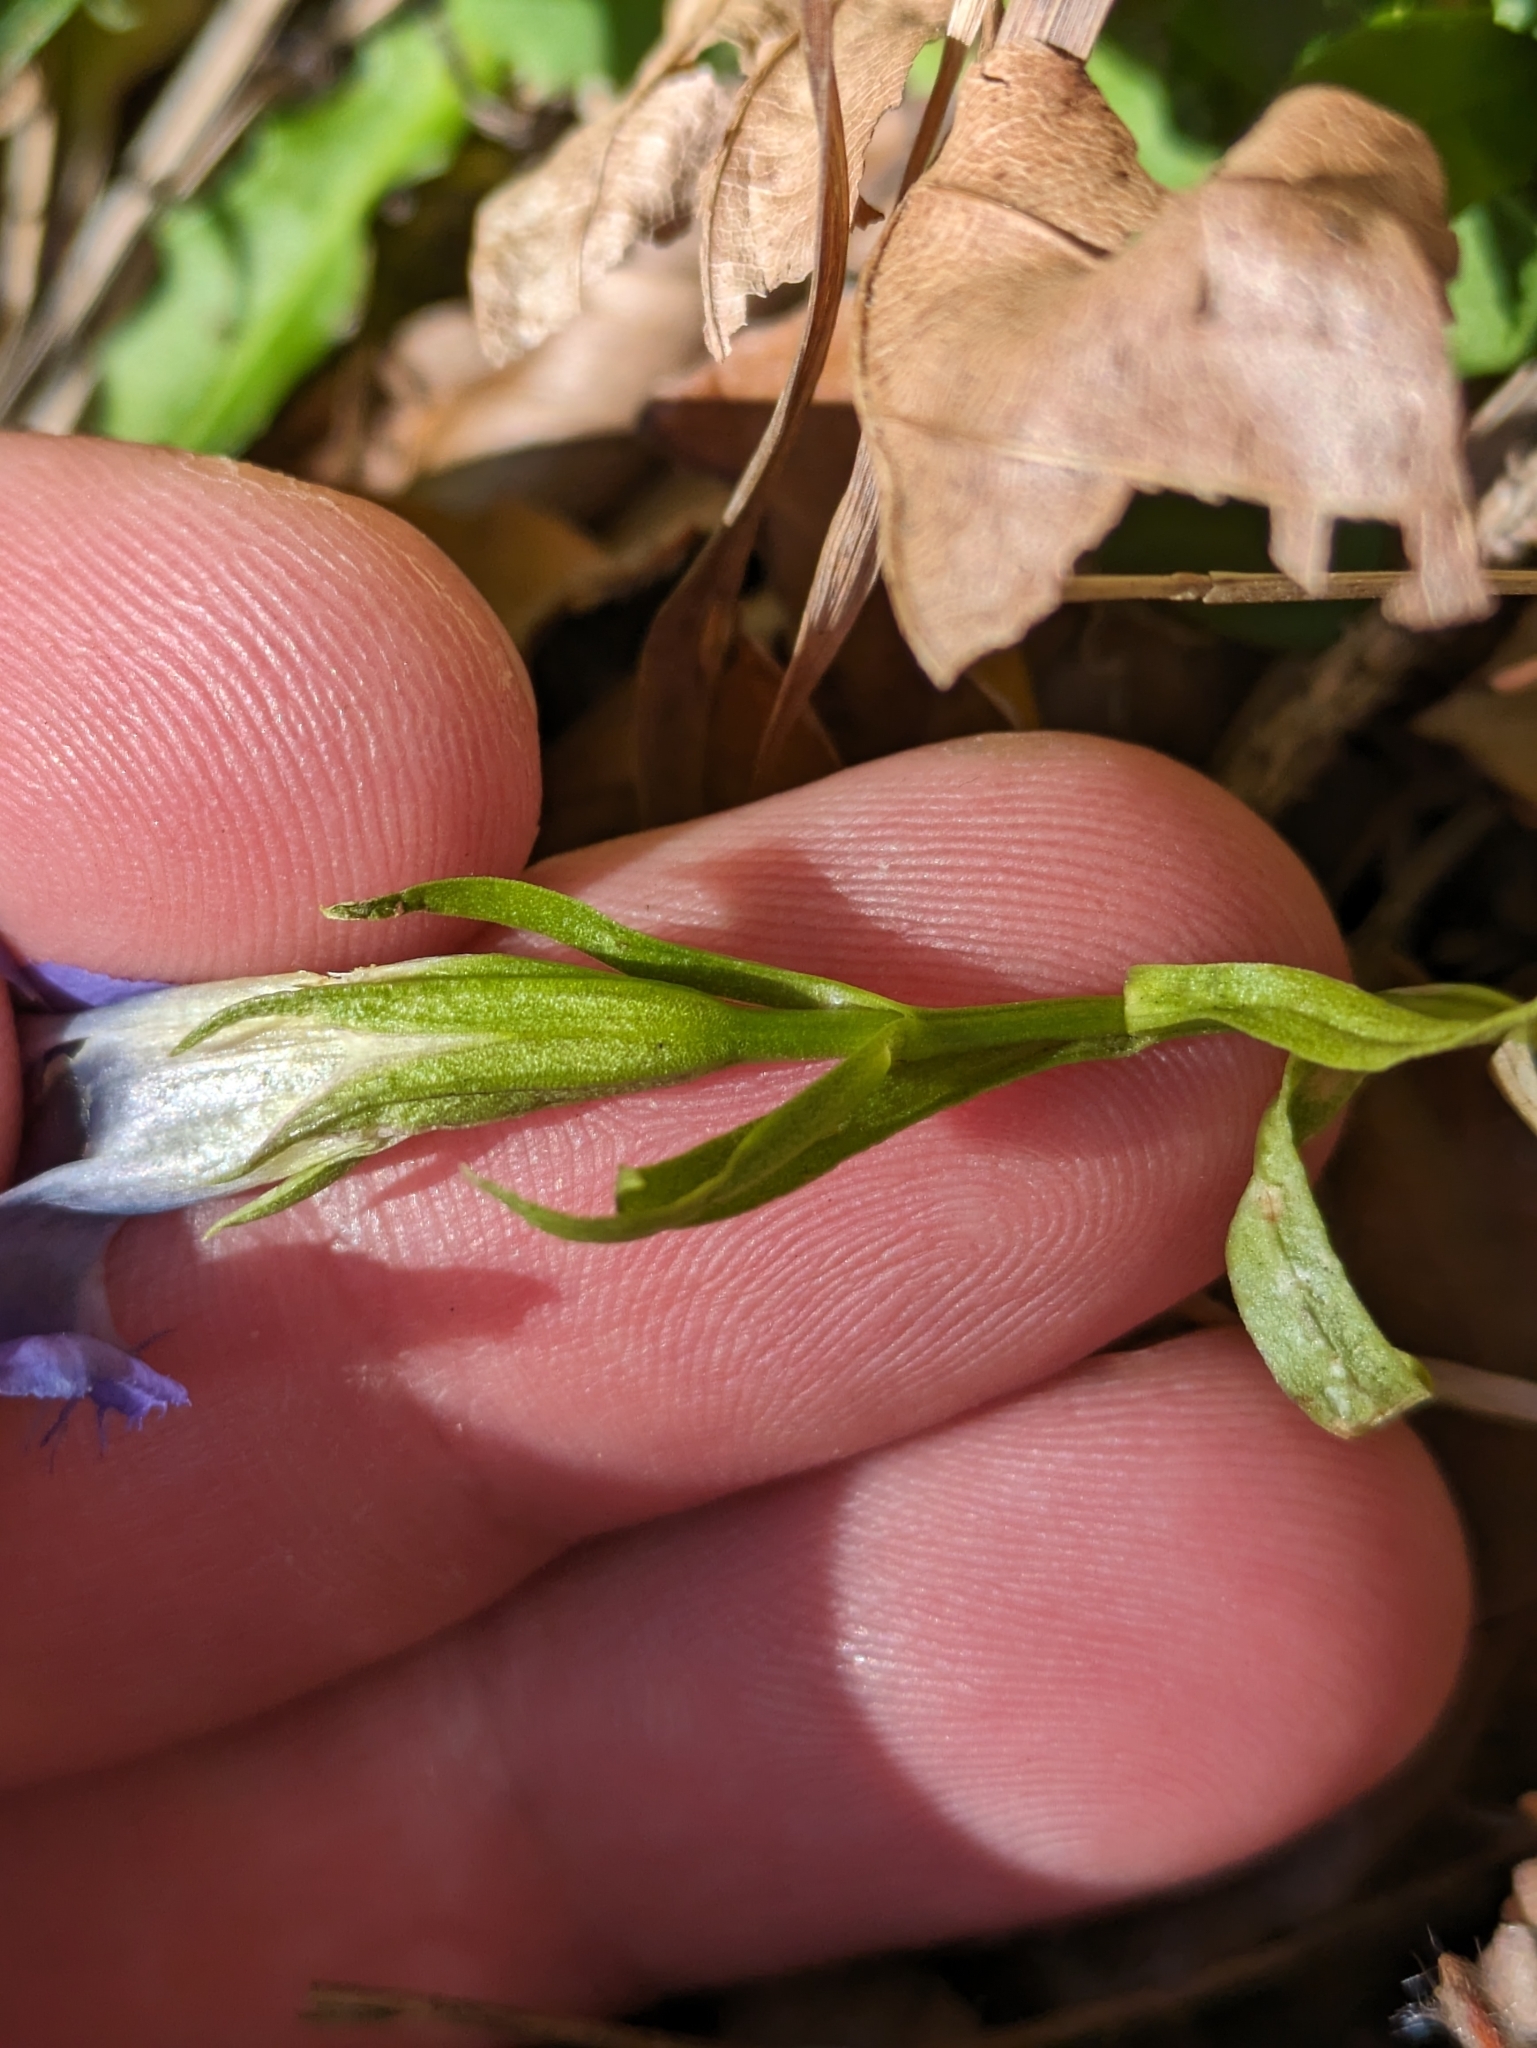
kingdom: Plantae
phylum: Tracheophyta
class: Magnoliopsida
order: Gentianales
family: Gentianaceae
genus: Gentianopsis
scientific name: Gentianopsis ciliata
